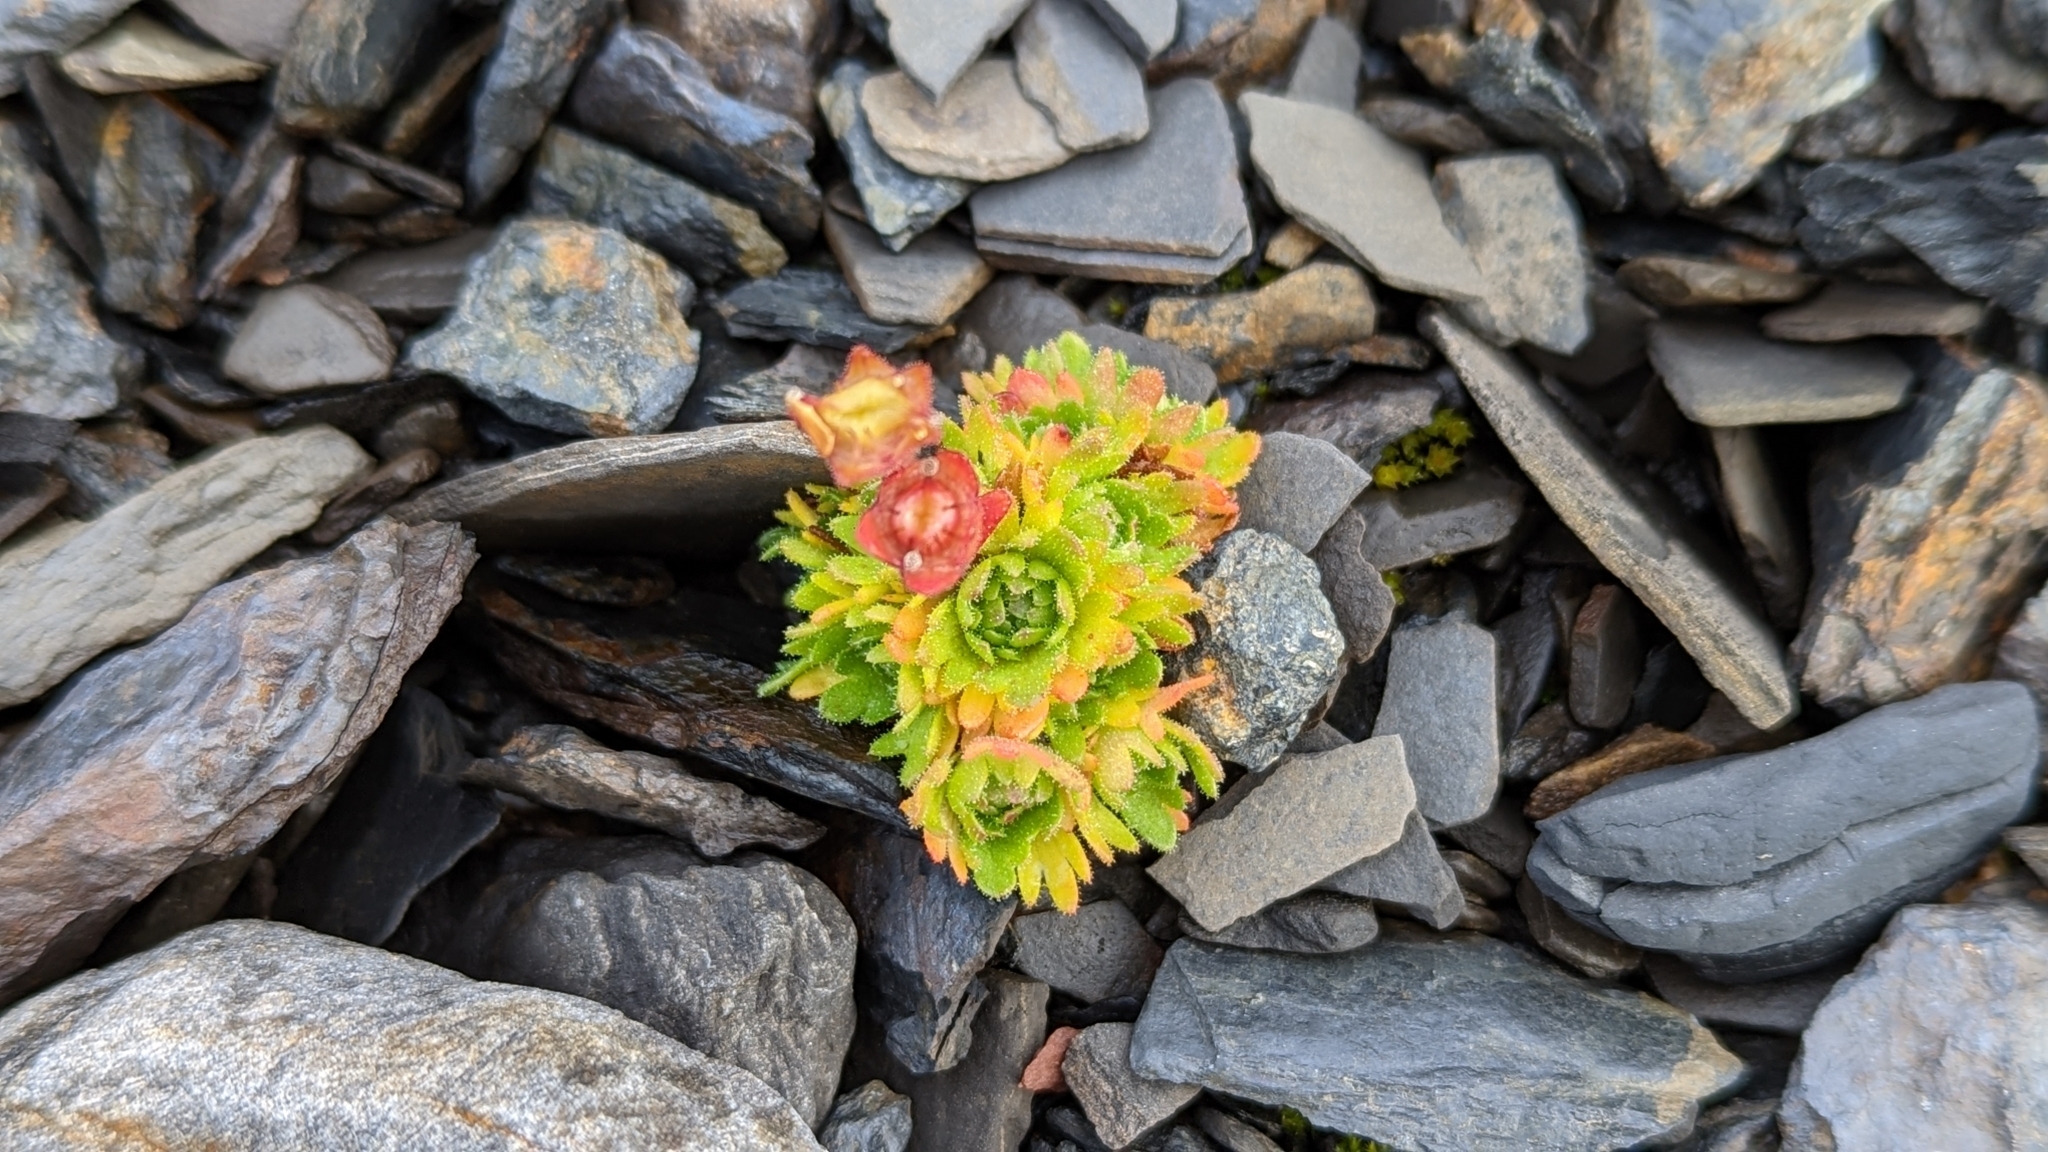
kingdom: Plantae
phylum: Tracheophyta
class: Magnoliopsida
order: Saxifragales
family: Saxifragaceae
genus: Saxifraga
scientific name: Saxifraga cespitosa
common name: Tufted saxifrage
